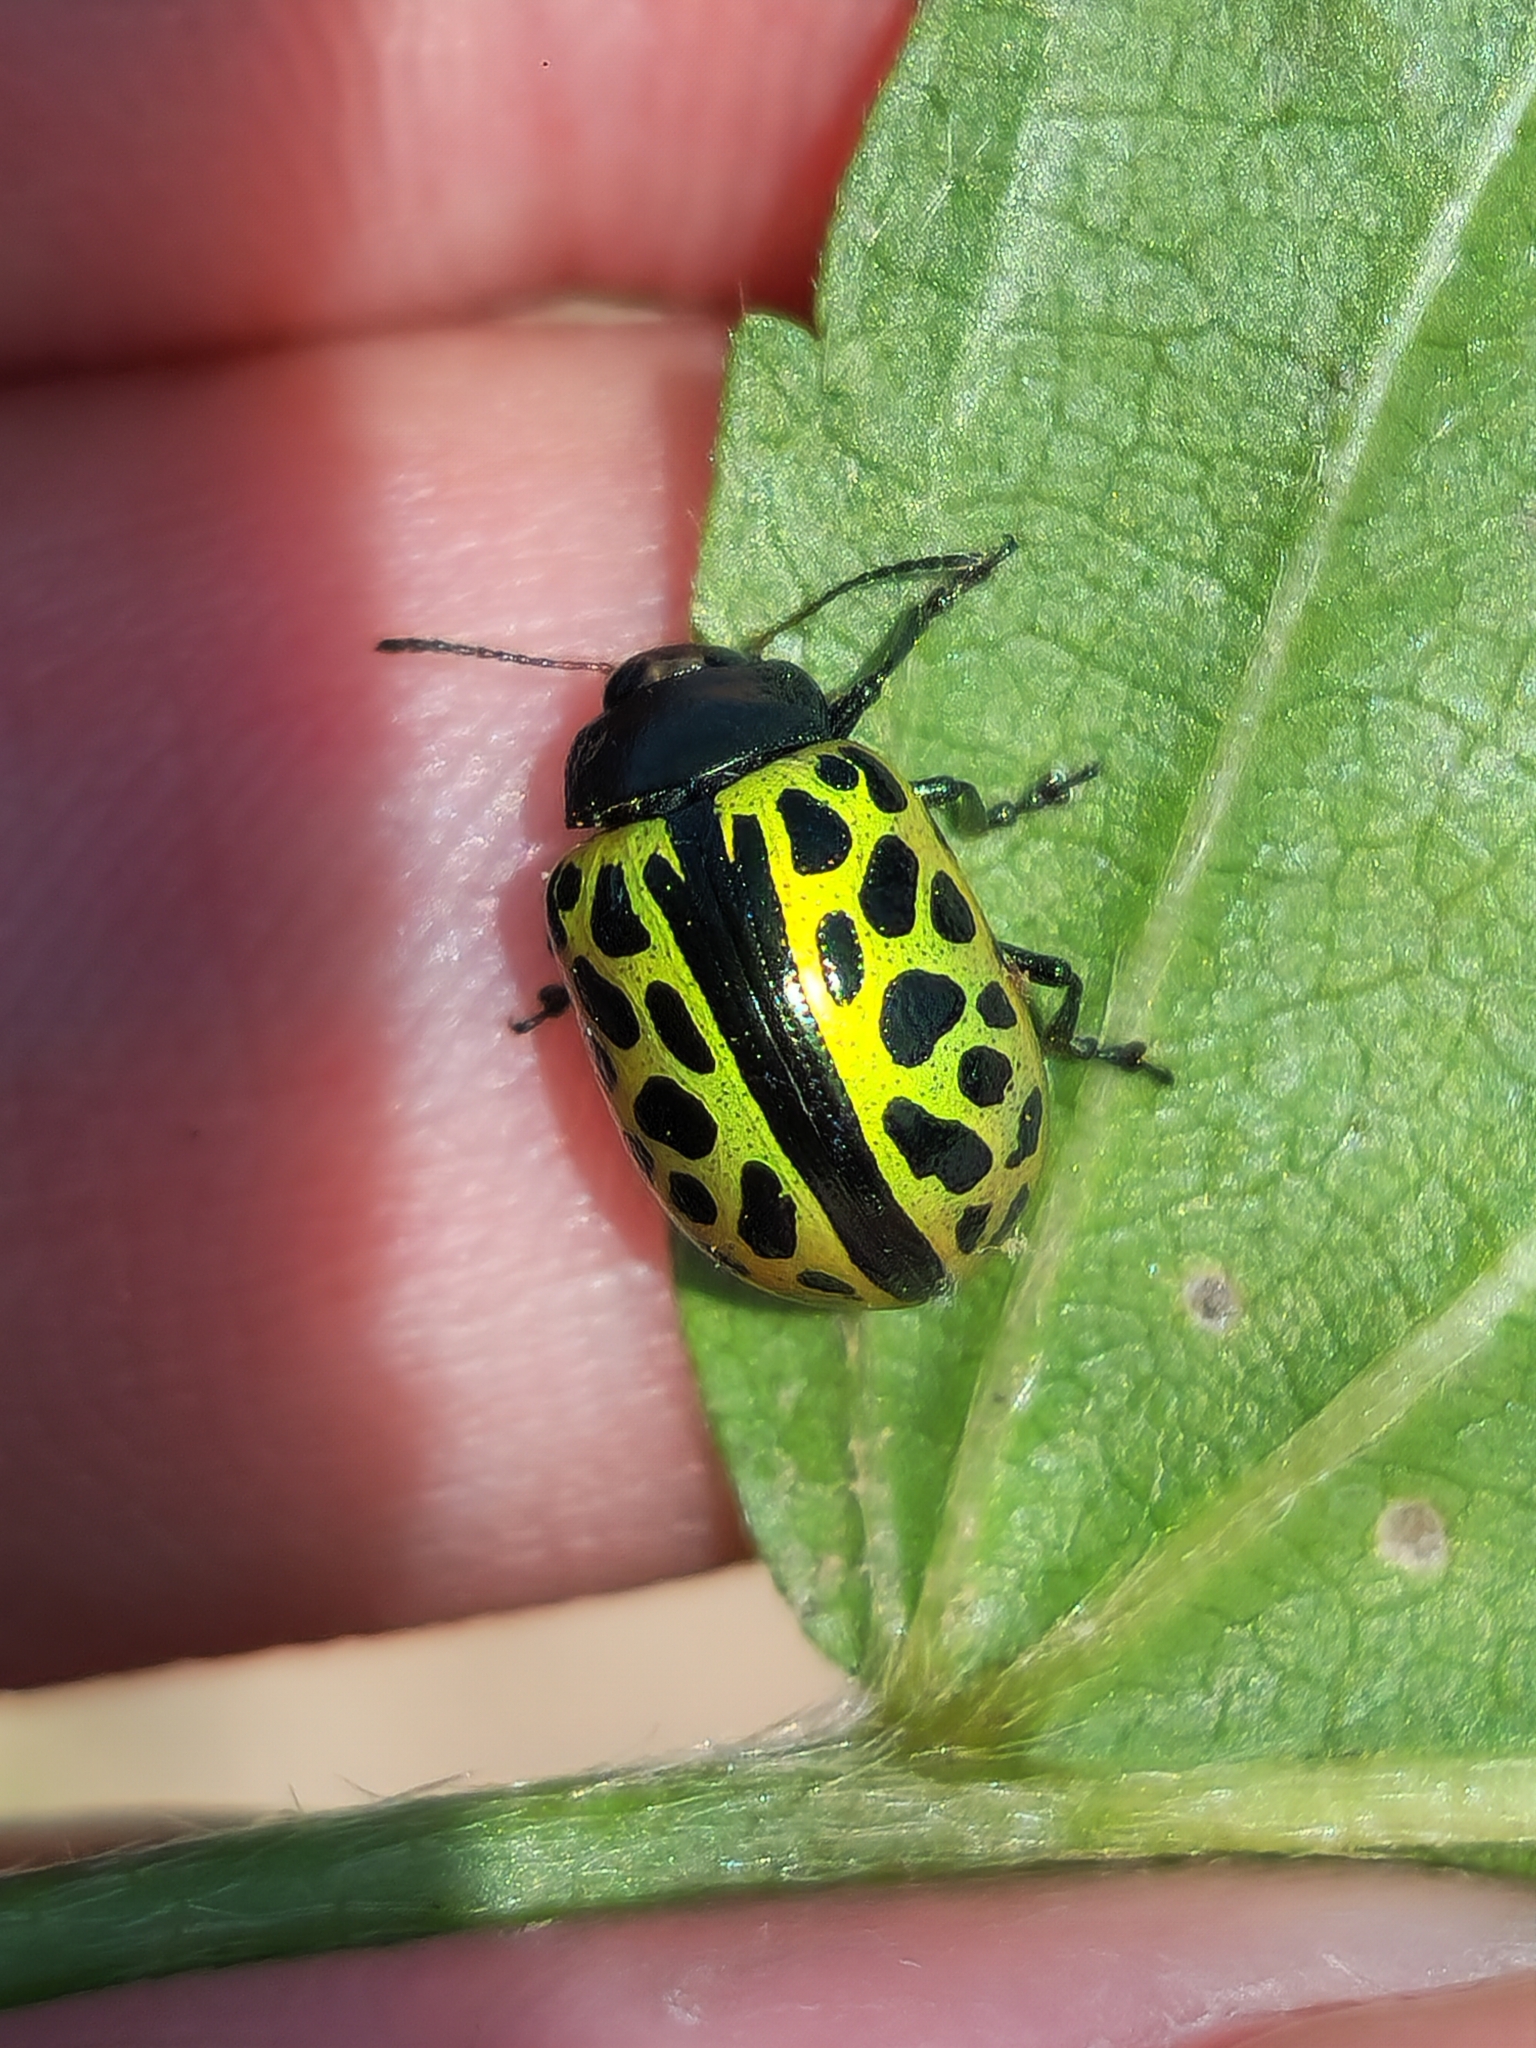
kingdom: Animalia
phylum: Arthropoda
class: Insecta
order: Coleoptera
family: Chrysomelidae
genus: Calligrapha
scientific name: Calligrapha multiplagata
